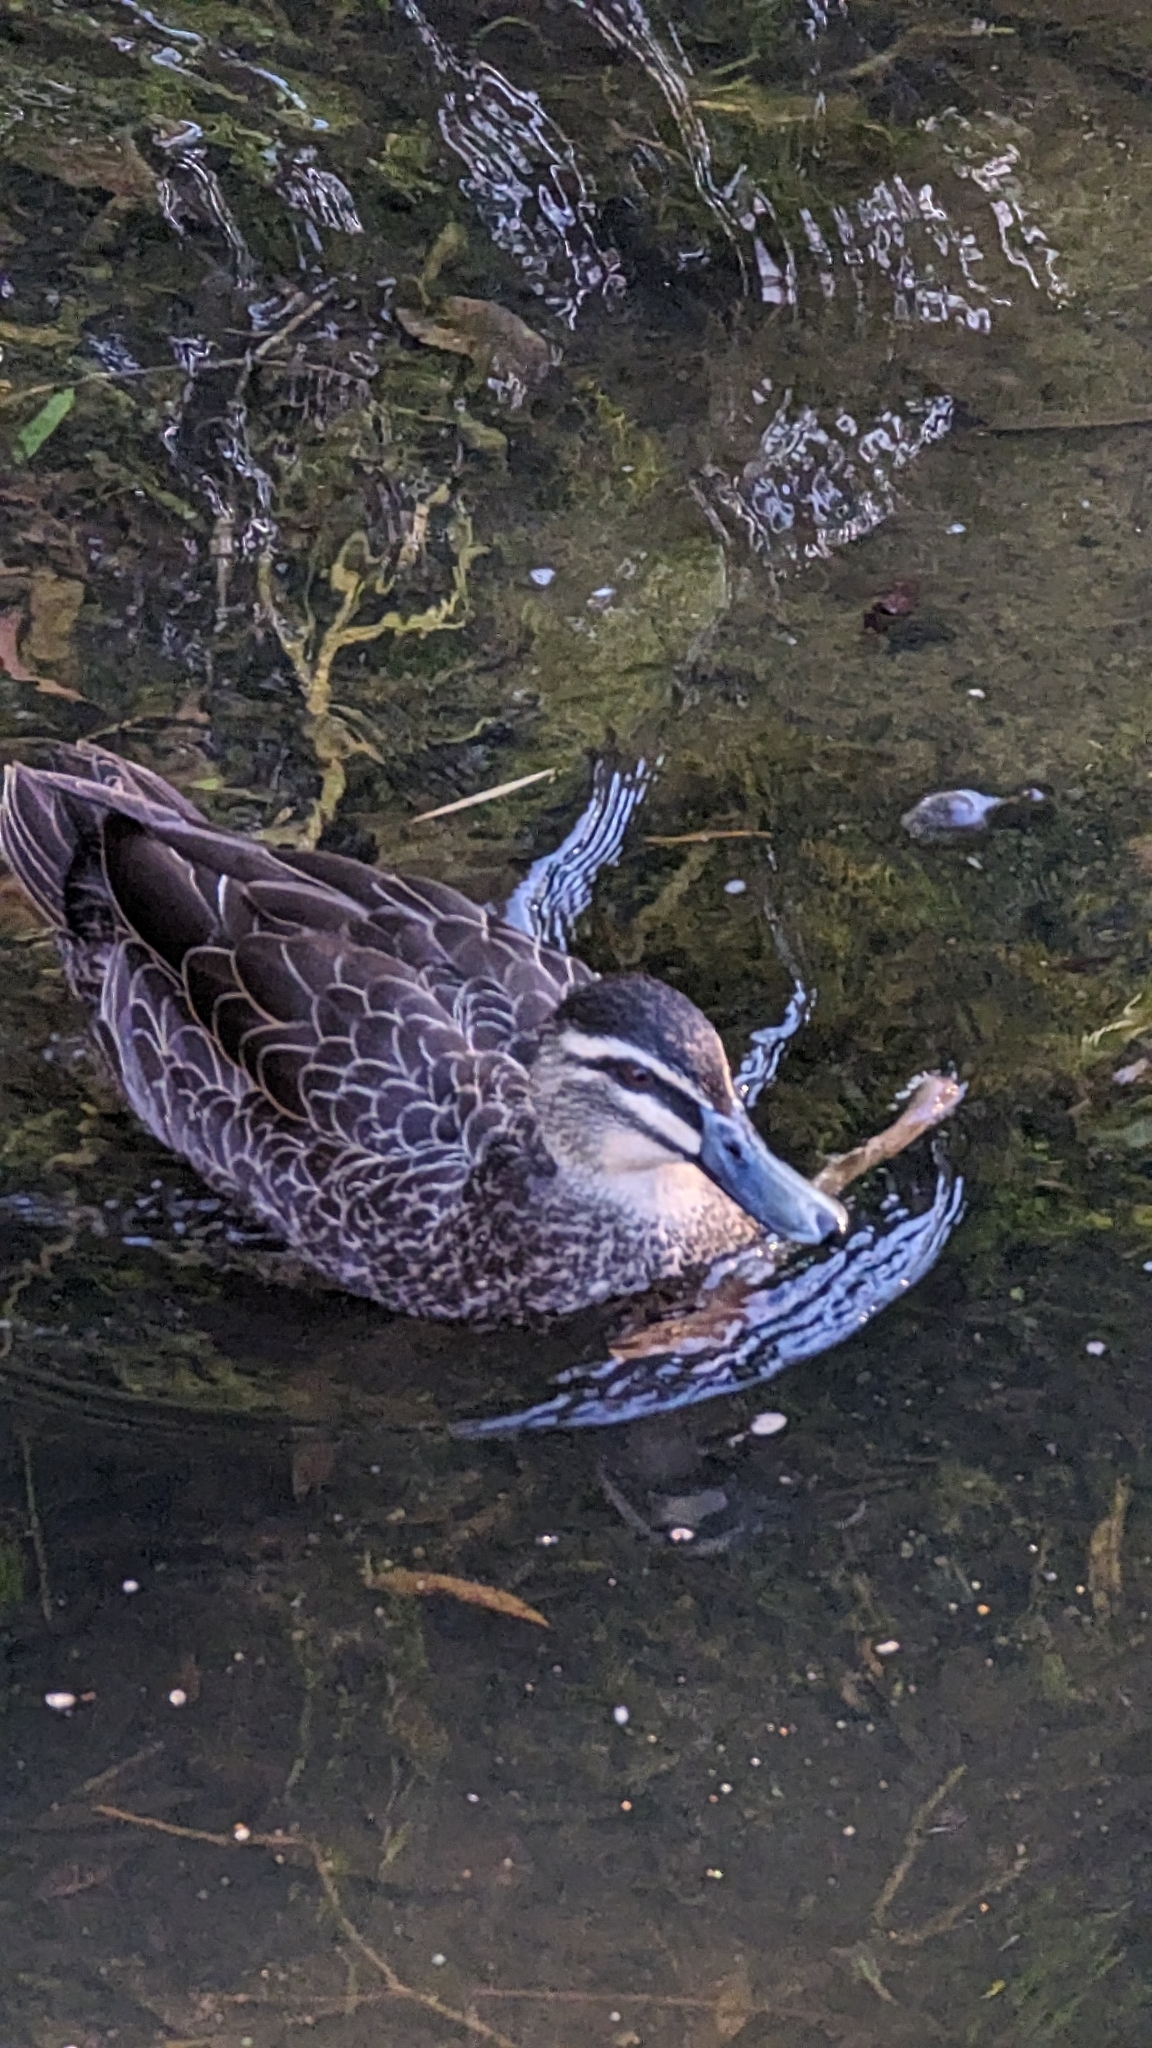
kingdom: Animalia
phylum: Chordata
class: Aves
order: Anseriformes
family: Anatidae
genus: Anas
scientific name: Anas superciliosa
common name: Pacific black duck
